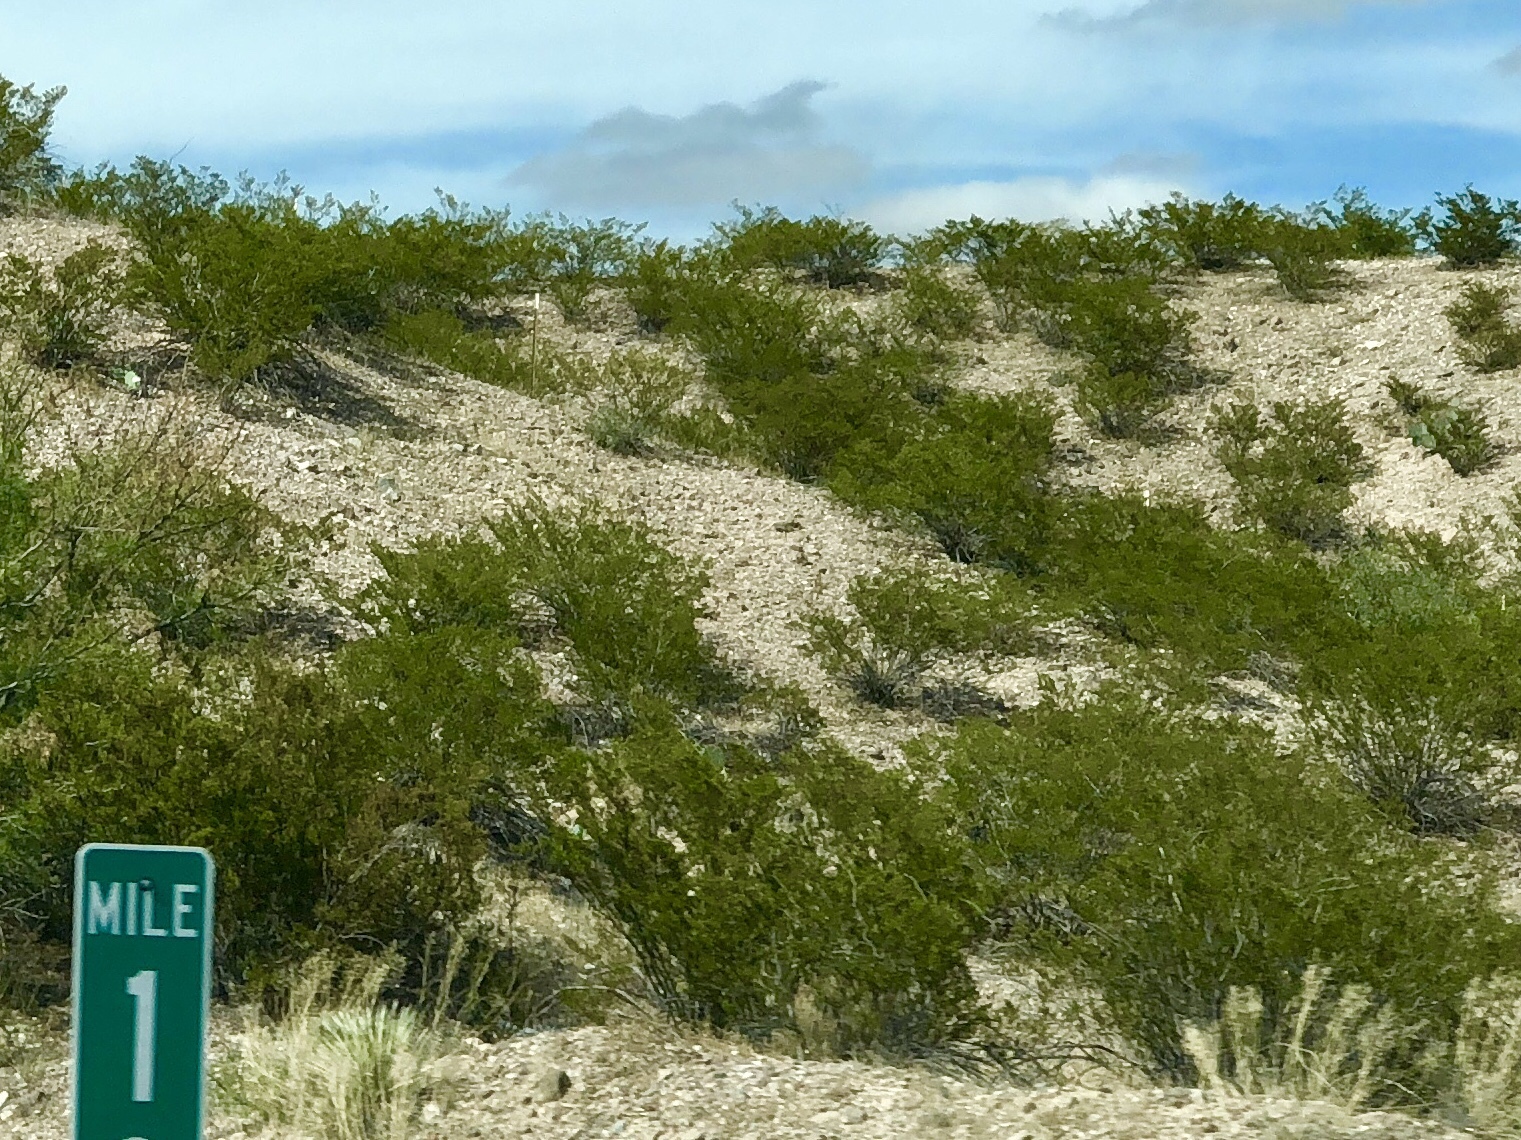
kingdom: Plantae
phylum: Tracheophyta
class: Magnoliopsida
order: Zygophyllales
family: Zygophyllaceae
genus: Larrea
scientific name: Larrea tridentata
